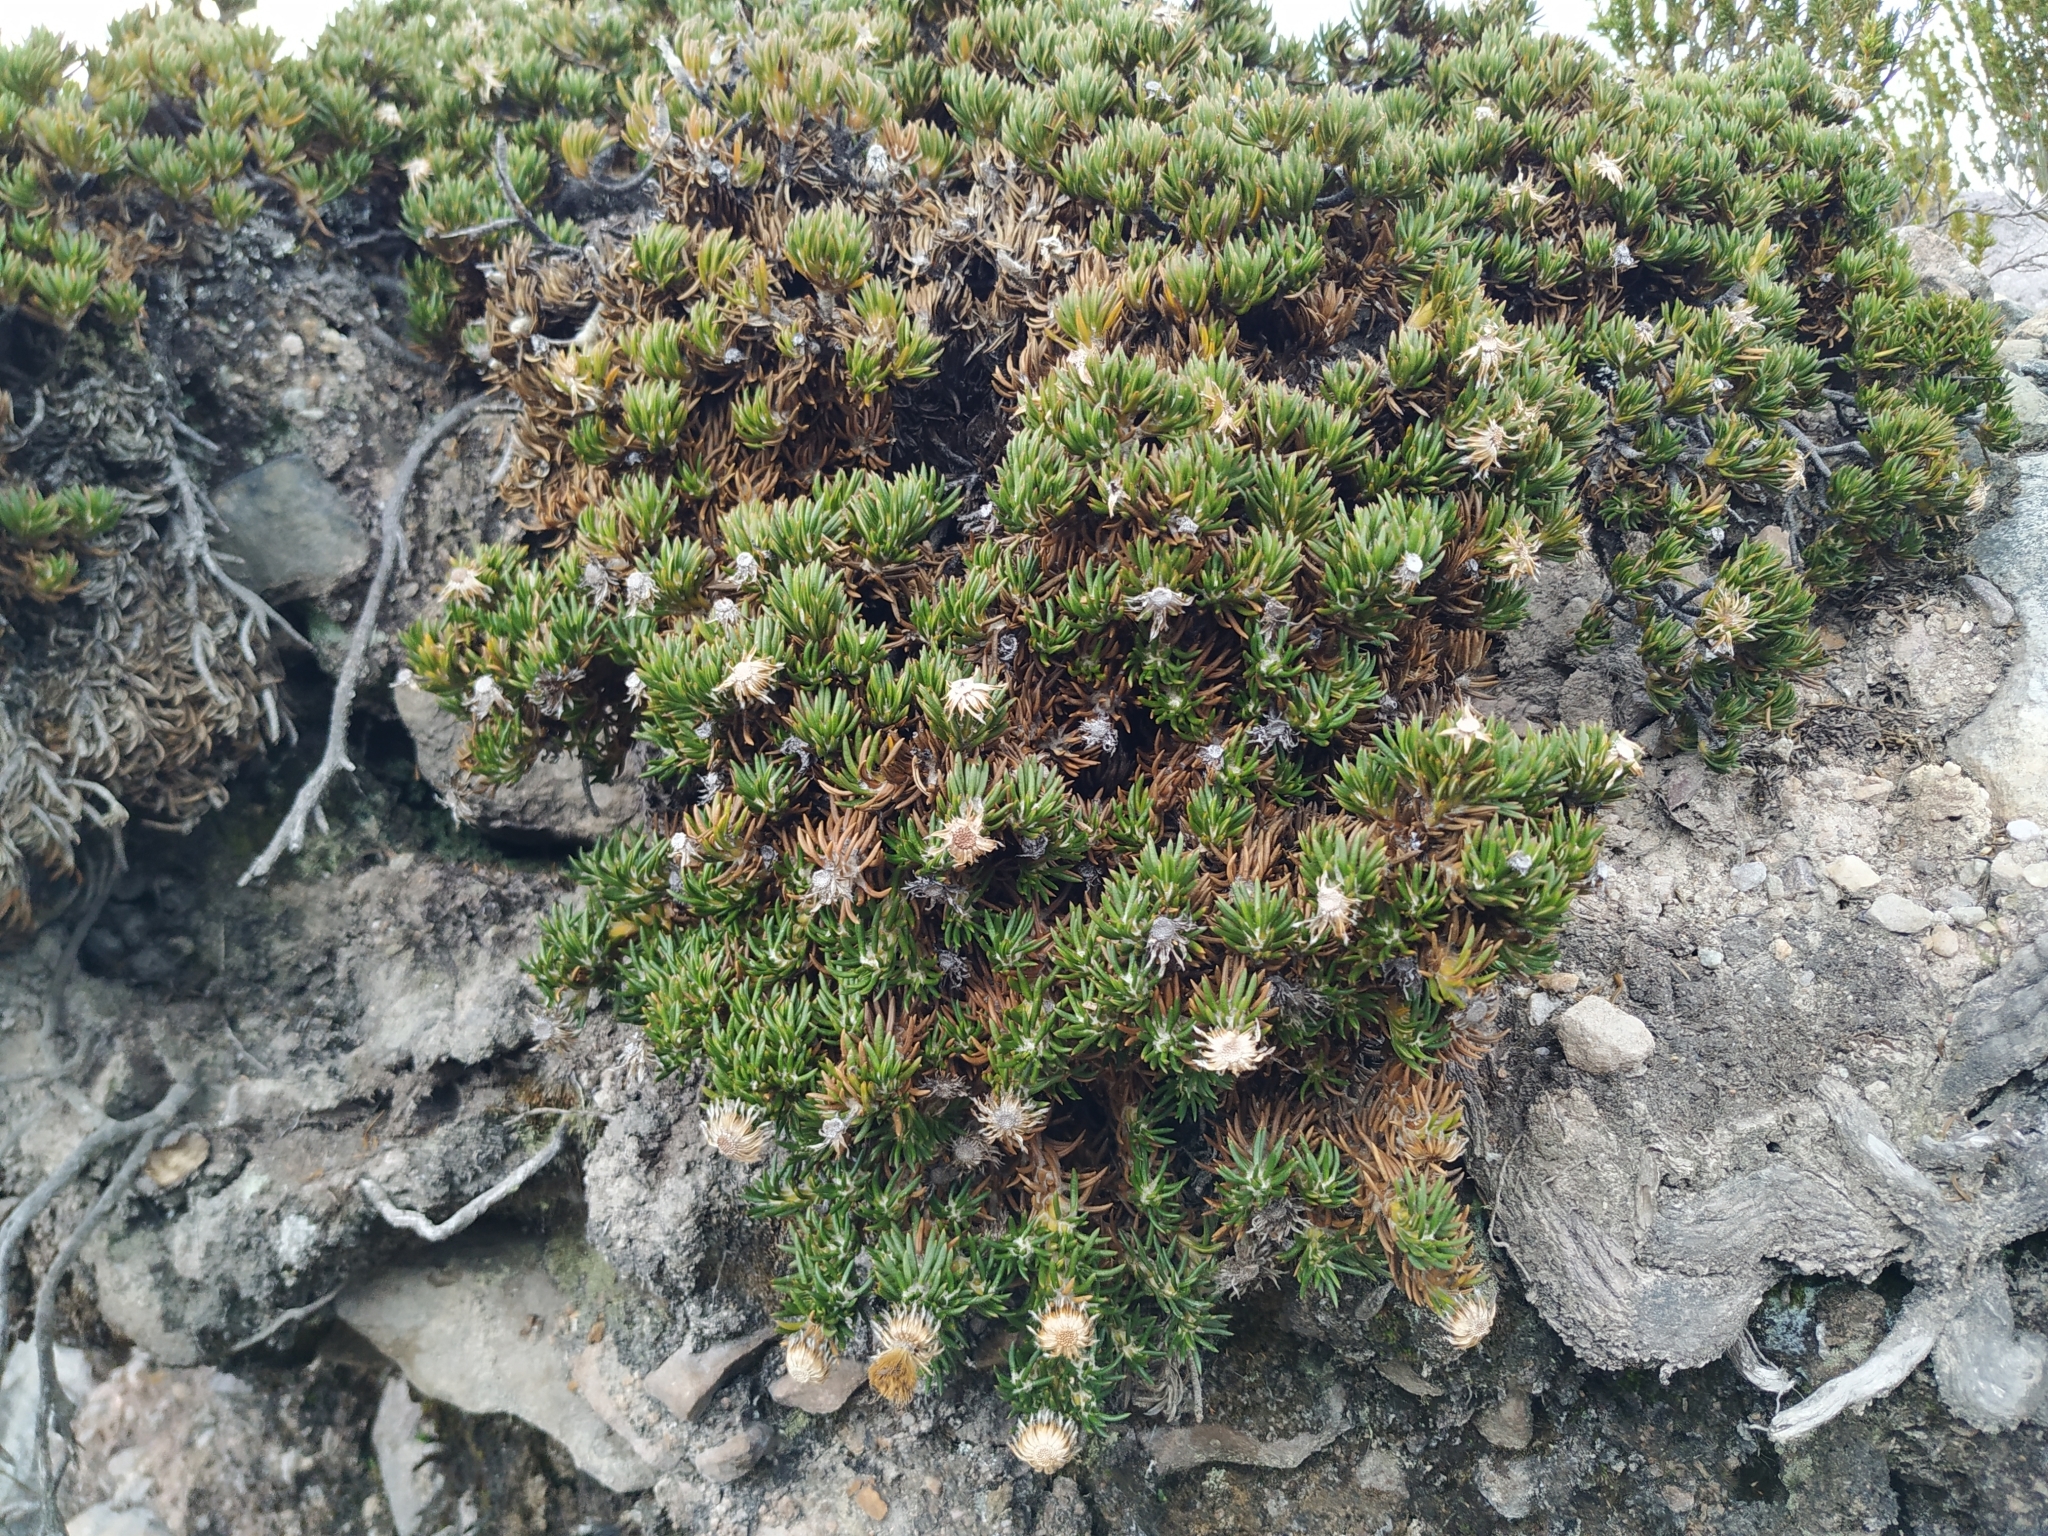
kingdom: Plantae
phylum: Tracheophyta
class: Magnoliopsida
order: Asterales
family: Asteraceae
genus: Linochilus
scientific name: Linochilus colombianus
